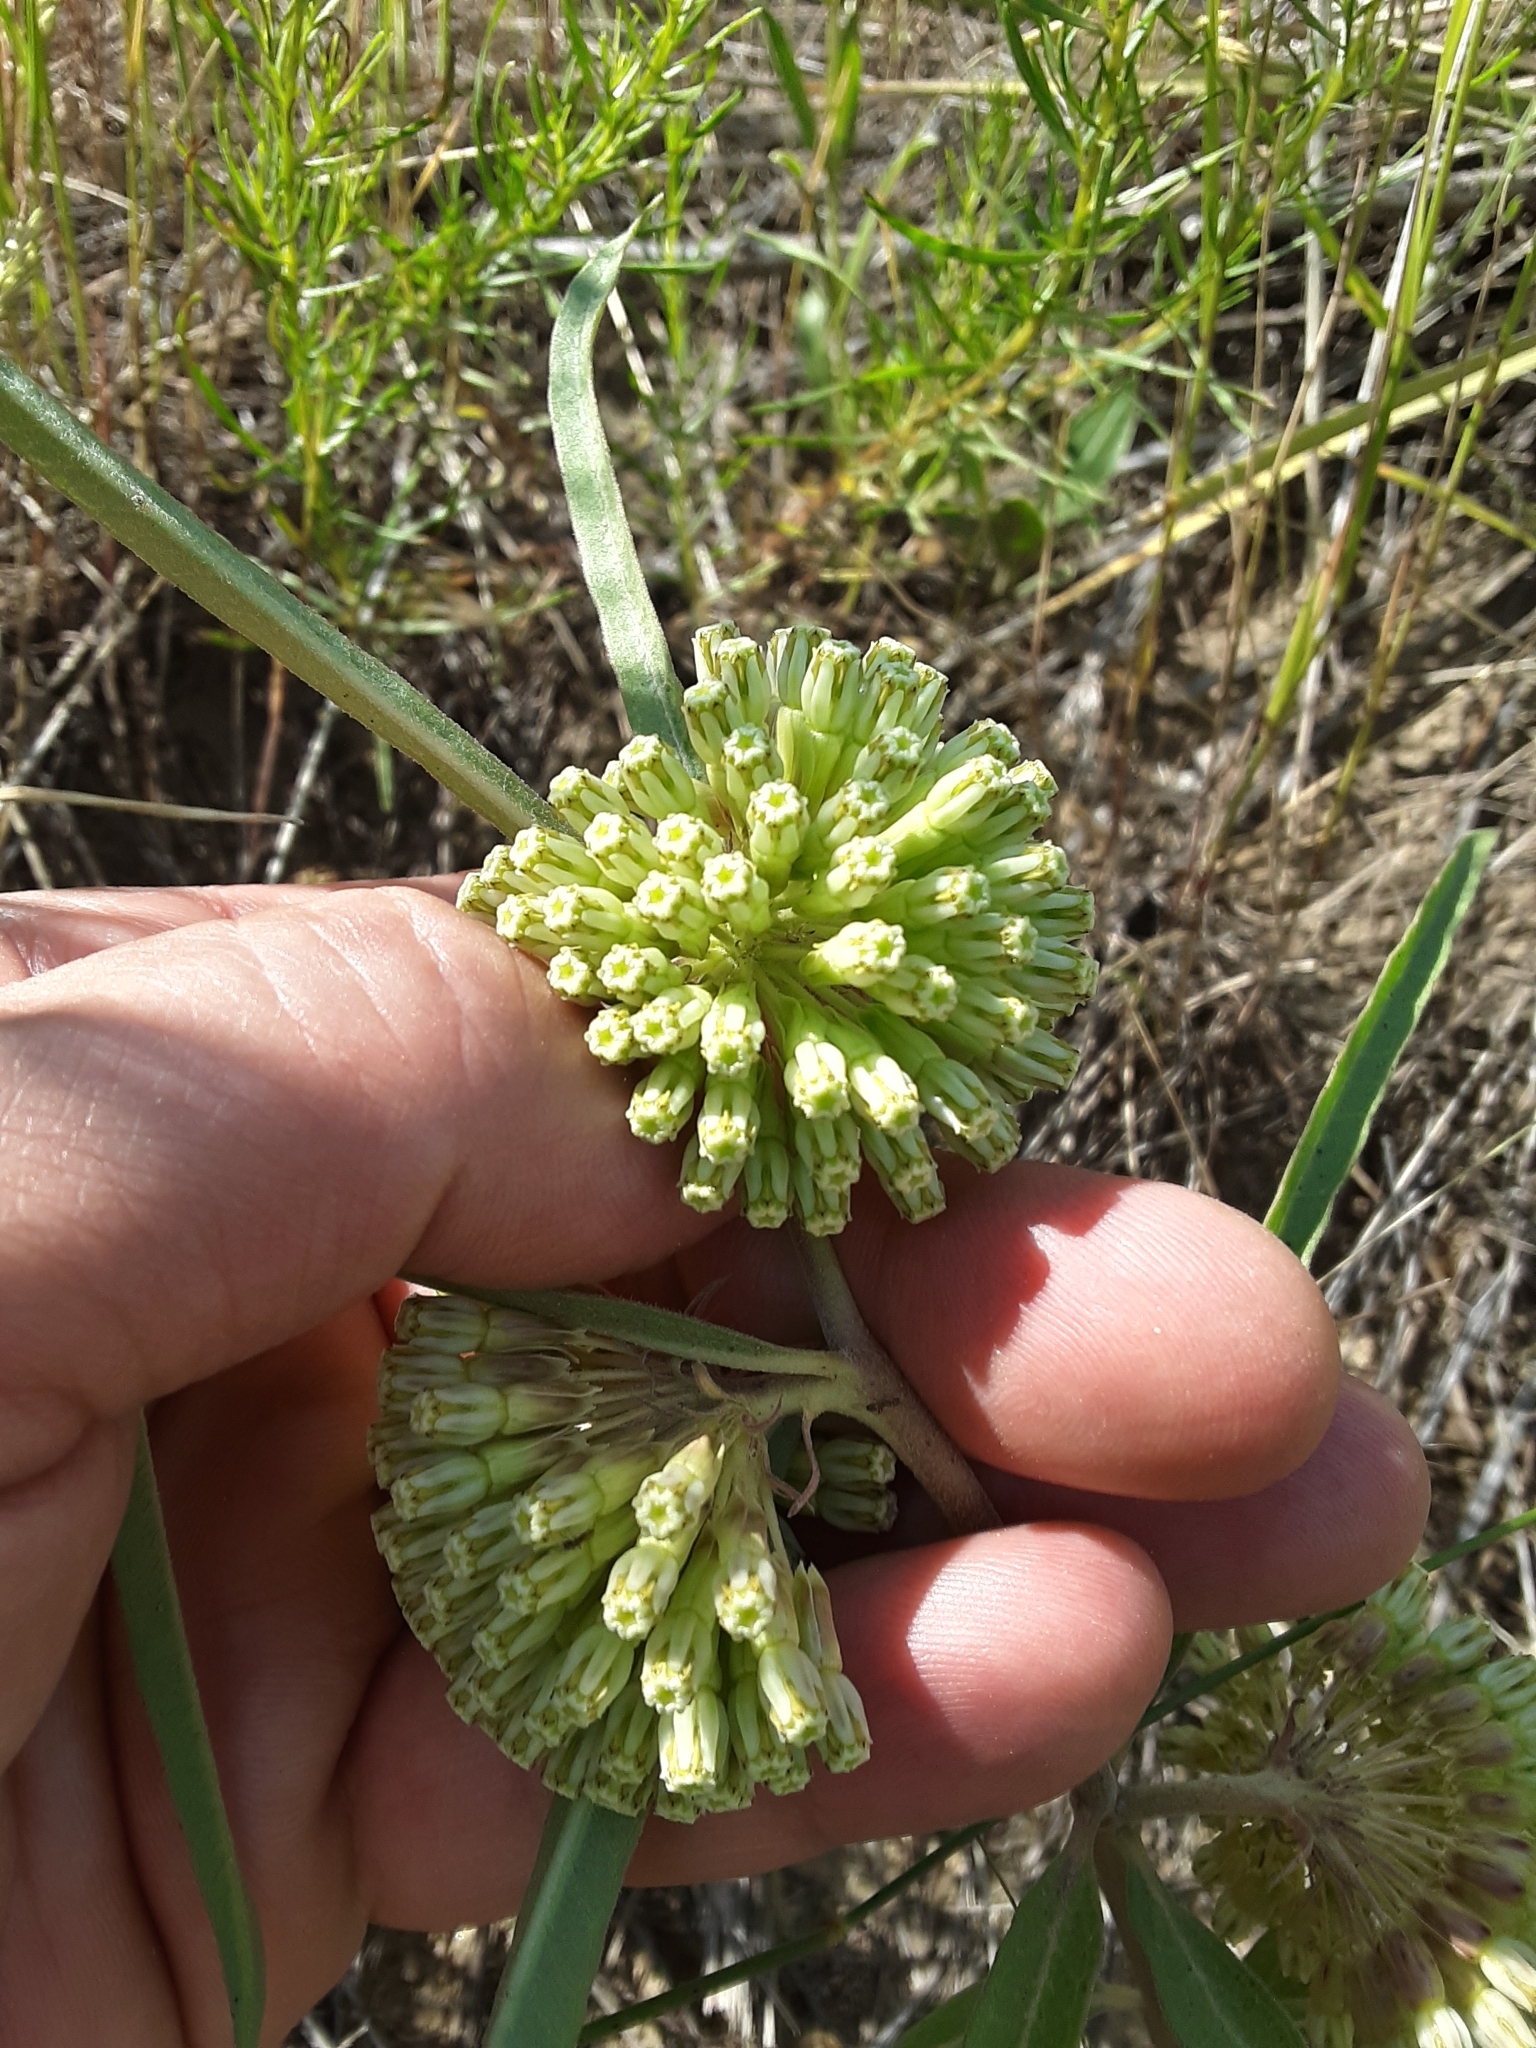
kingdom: Plantae
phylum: Tracheophyta
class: Magnoliopsida
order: Gentianales
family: Apocynaceae
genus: Asclepias
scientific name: Asclepias viridiflora
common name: Green comet milkweed
